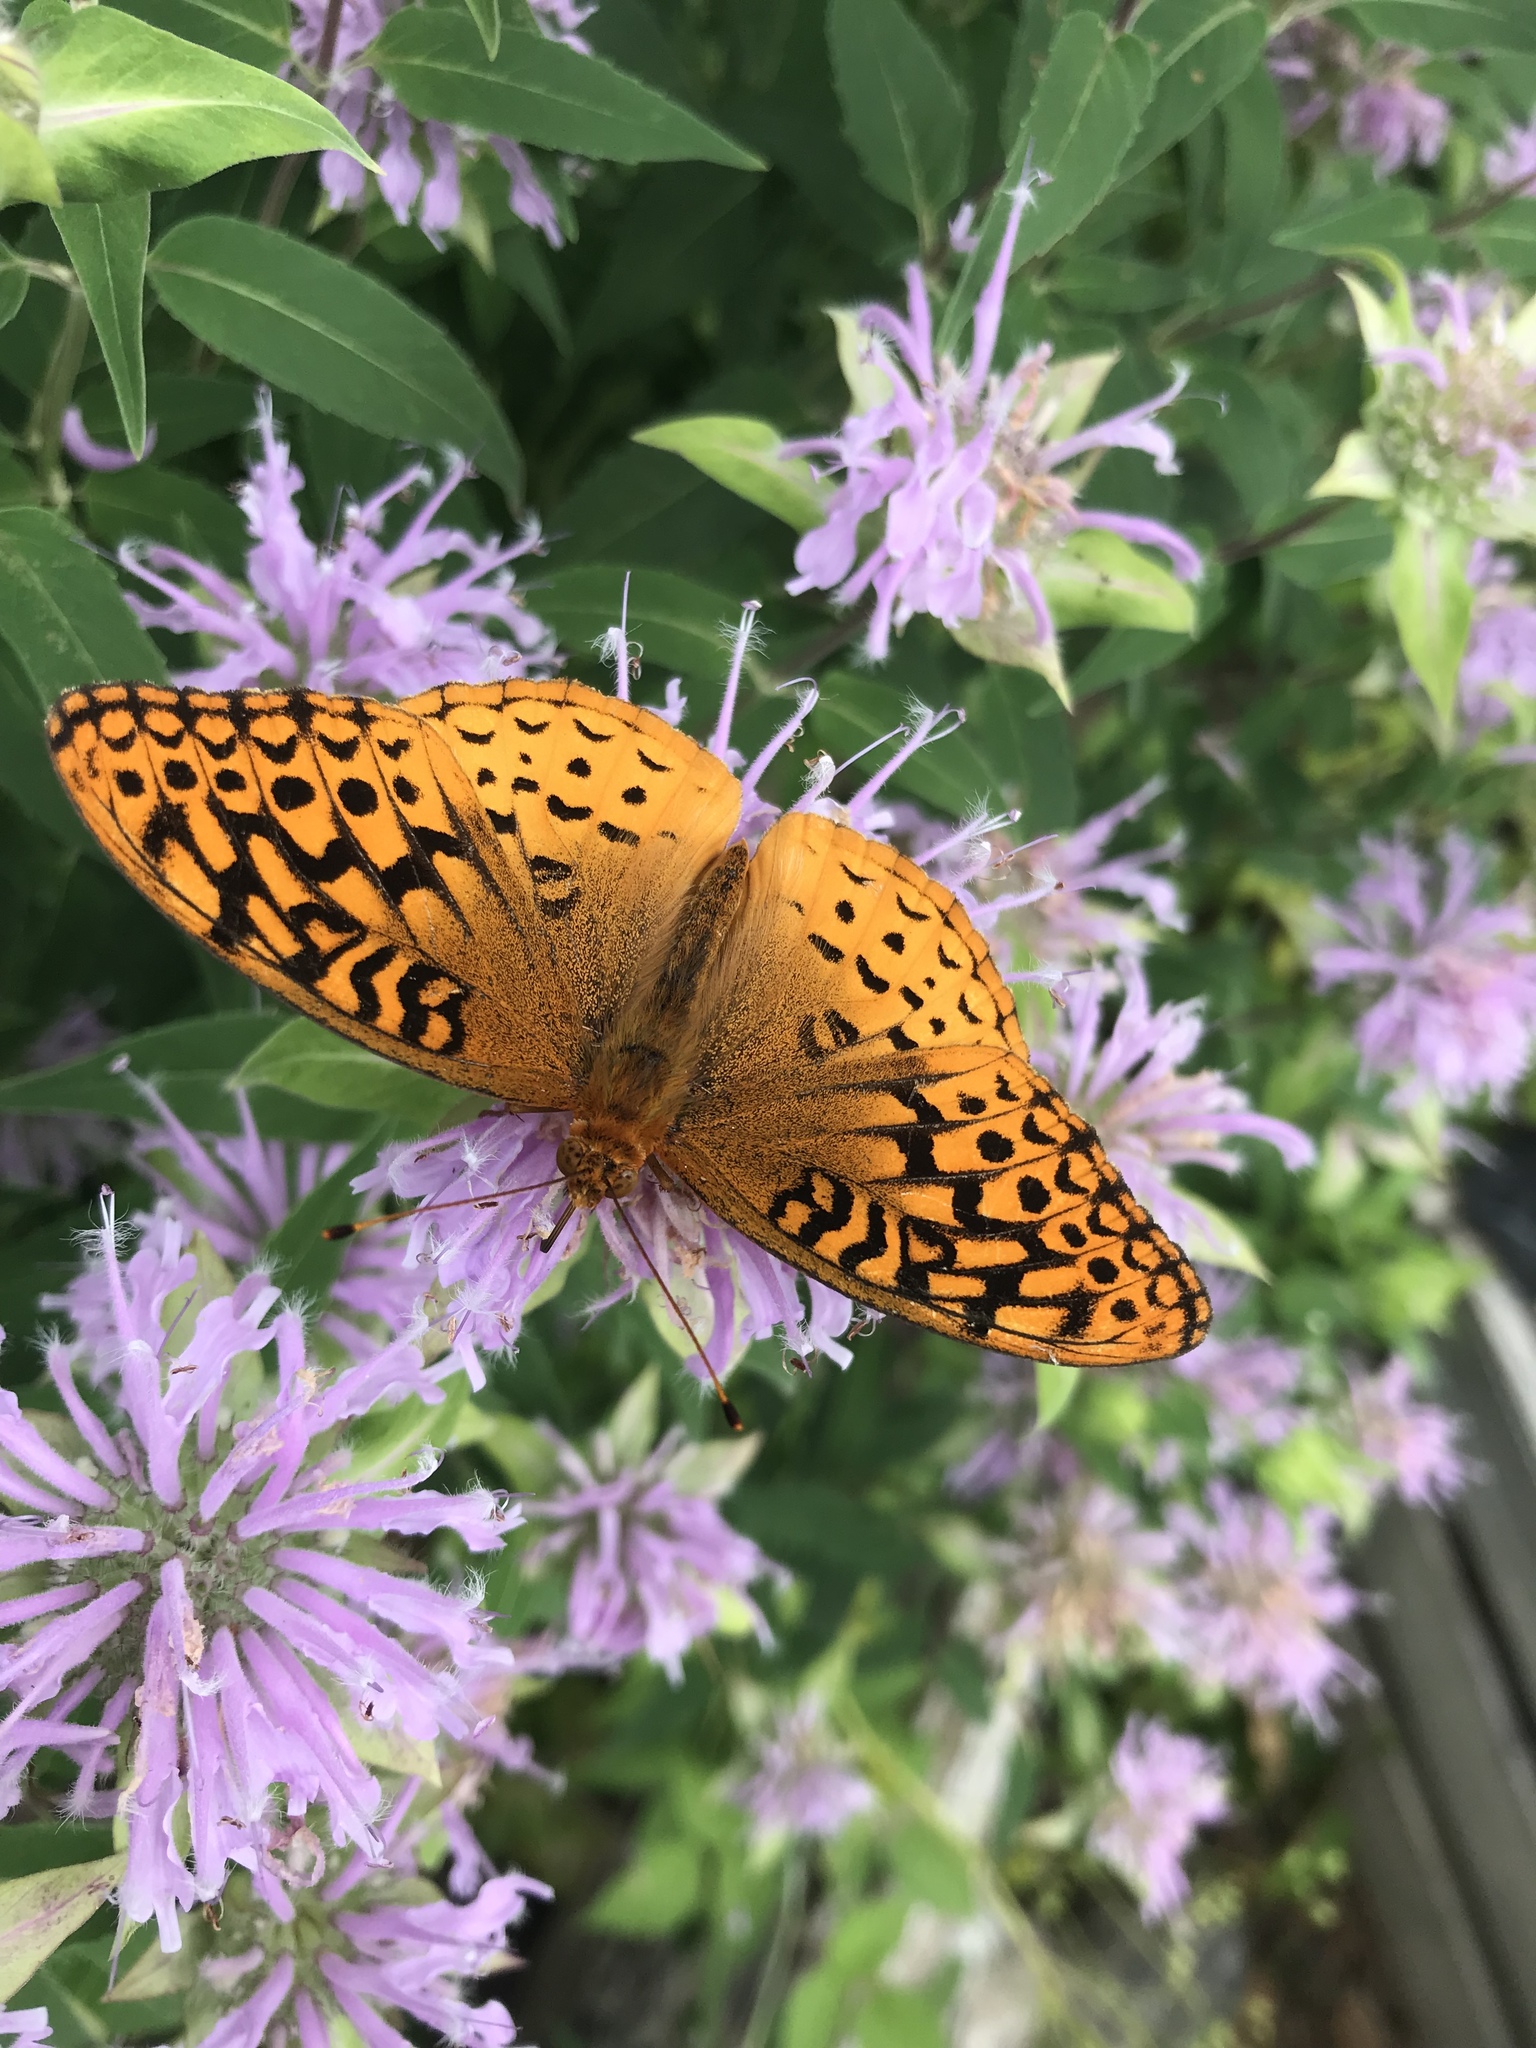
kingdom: Animalia
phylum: Arthropoda
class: Insecta
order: Lepidoptera
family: Nymphalidae
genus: Speyeria
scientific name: Speyeria cybele
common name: Great spangled fritillary
